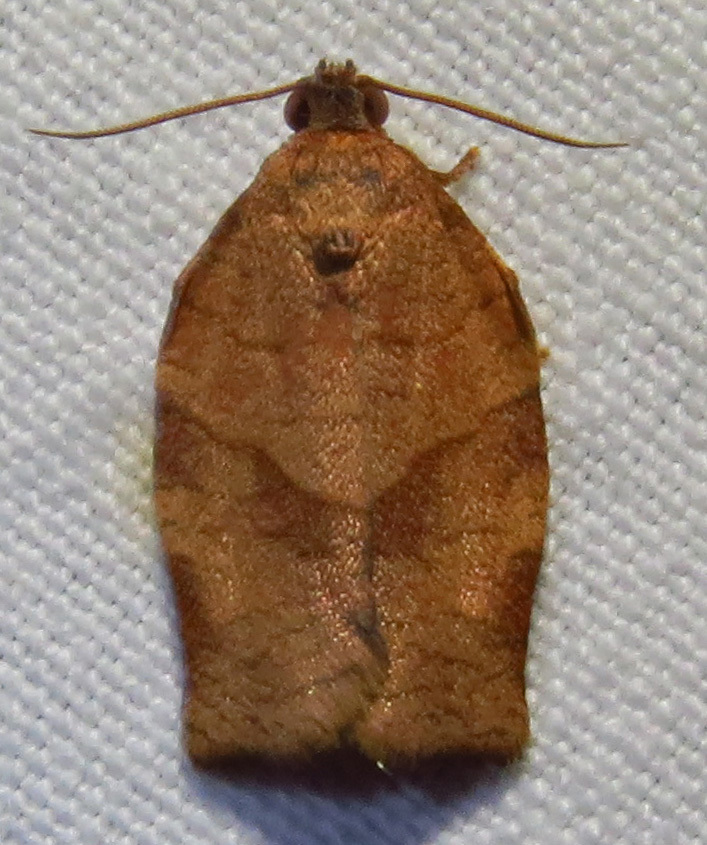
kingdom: Animalia
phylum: Arthropoda
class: Insecta
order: Lepidoptera
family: Tortricidae
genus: Choristoneura
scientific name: Choristoneura rosaceana
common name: Oblique-banded leafroller moth
